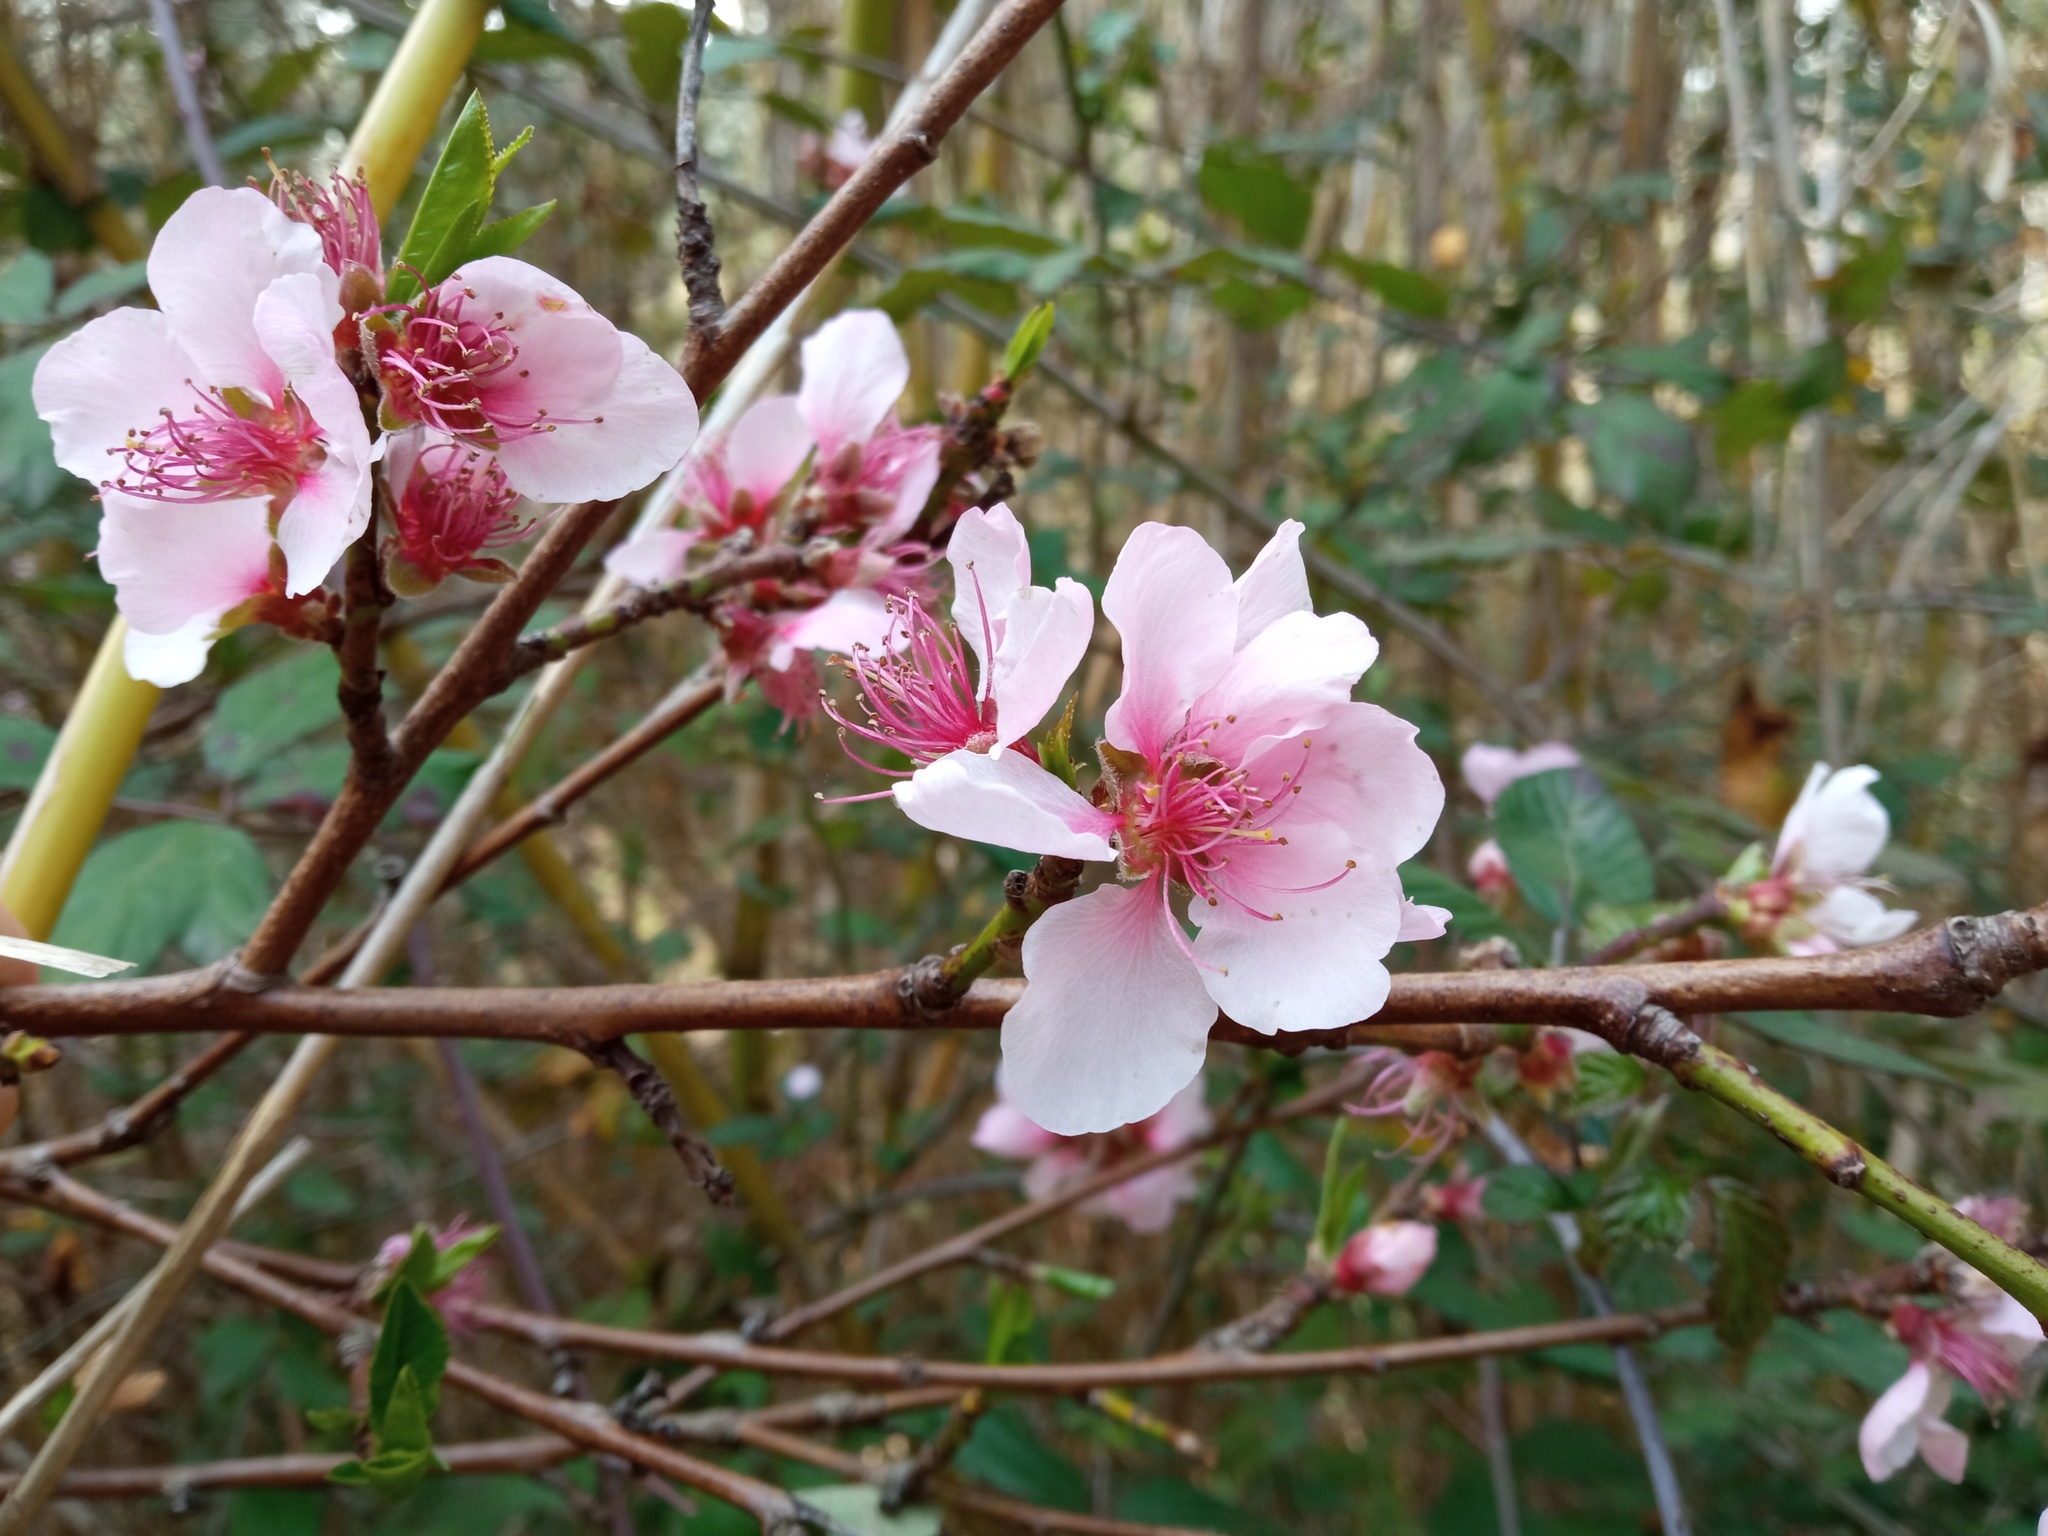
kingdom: Plantae
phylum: Tracheophyta
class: Magnoliopsida
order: Rosales
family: Rosaceae
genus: Prunus
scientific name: Prunus persica
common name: Peach
